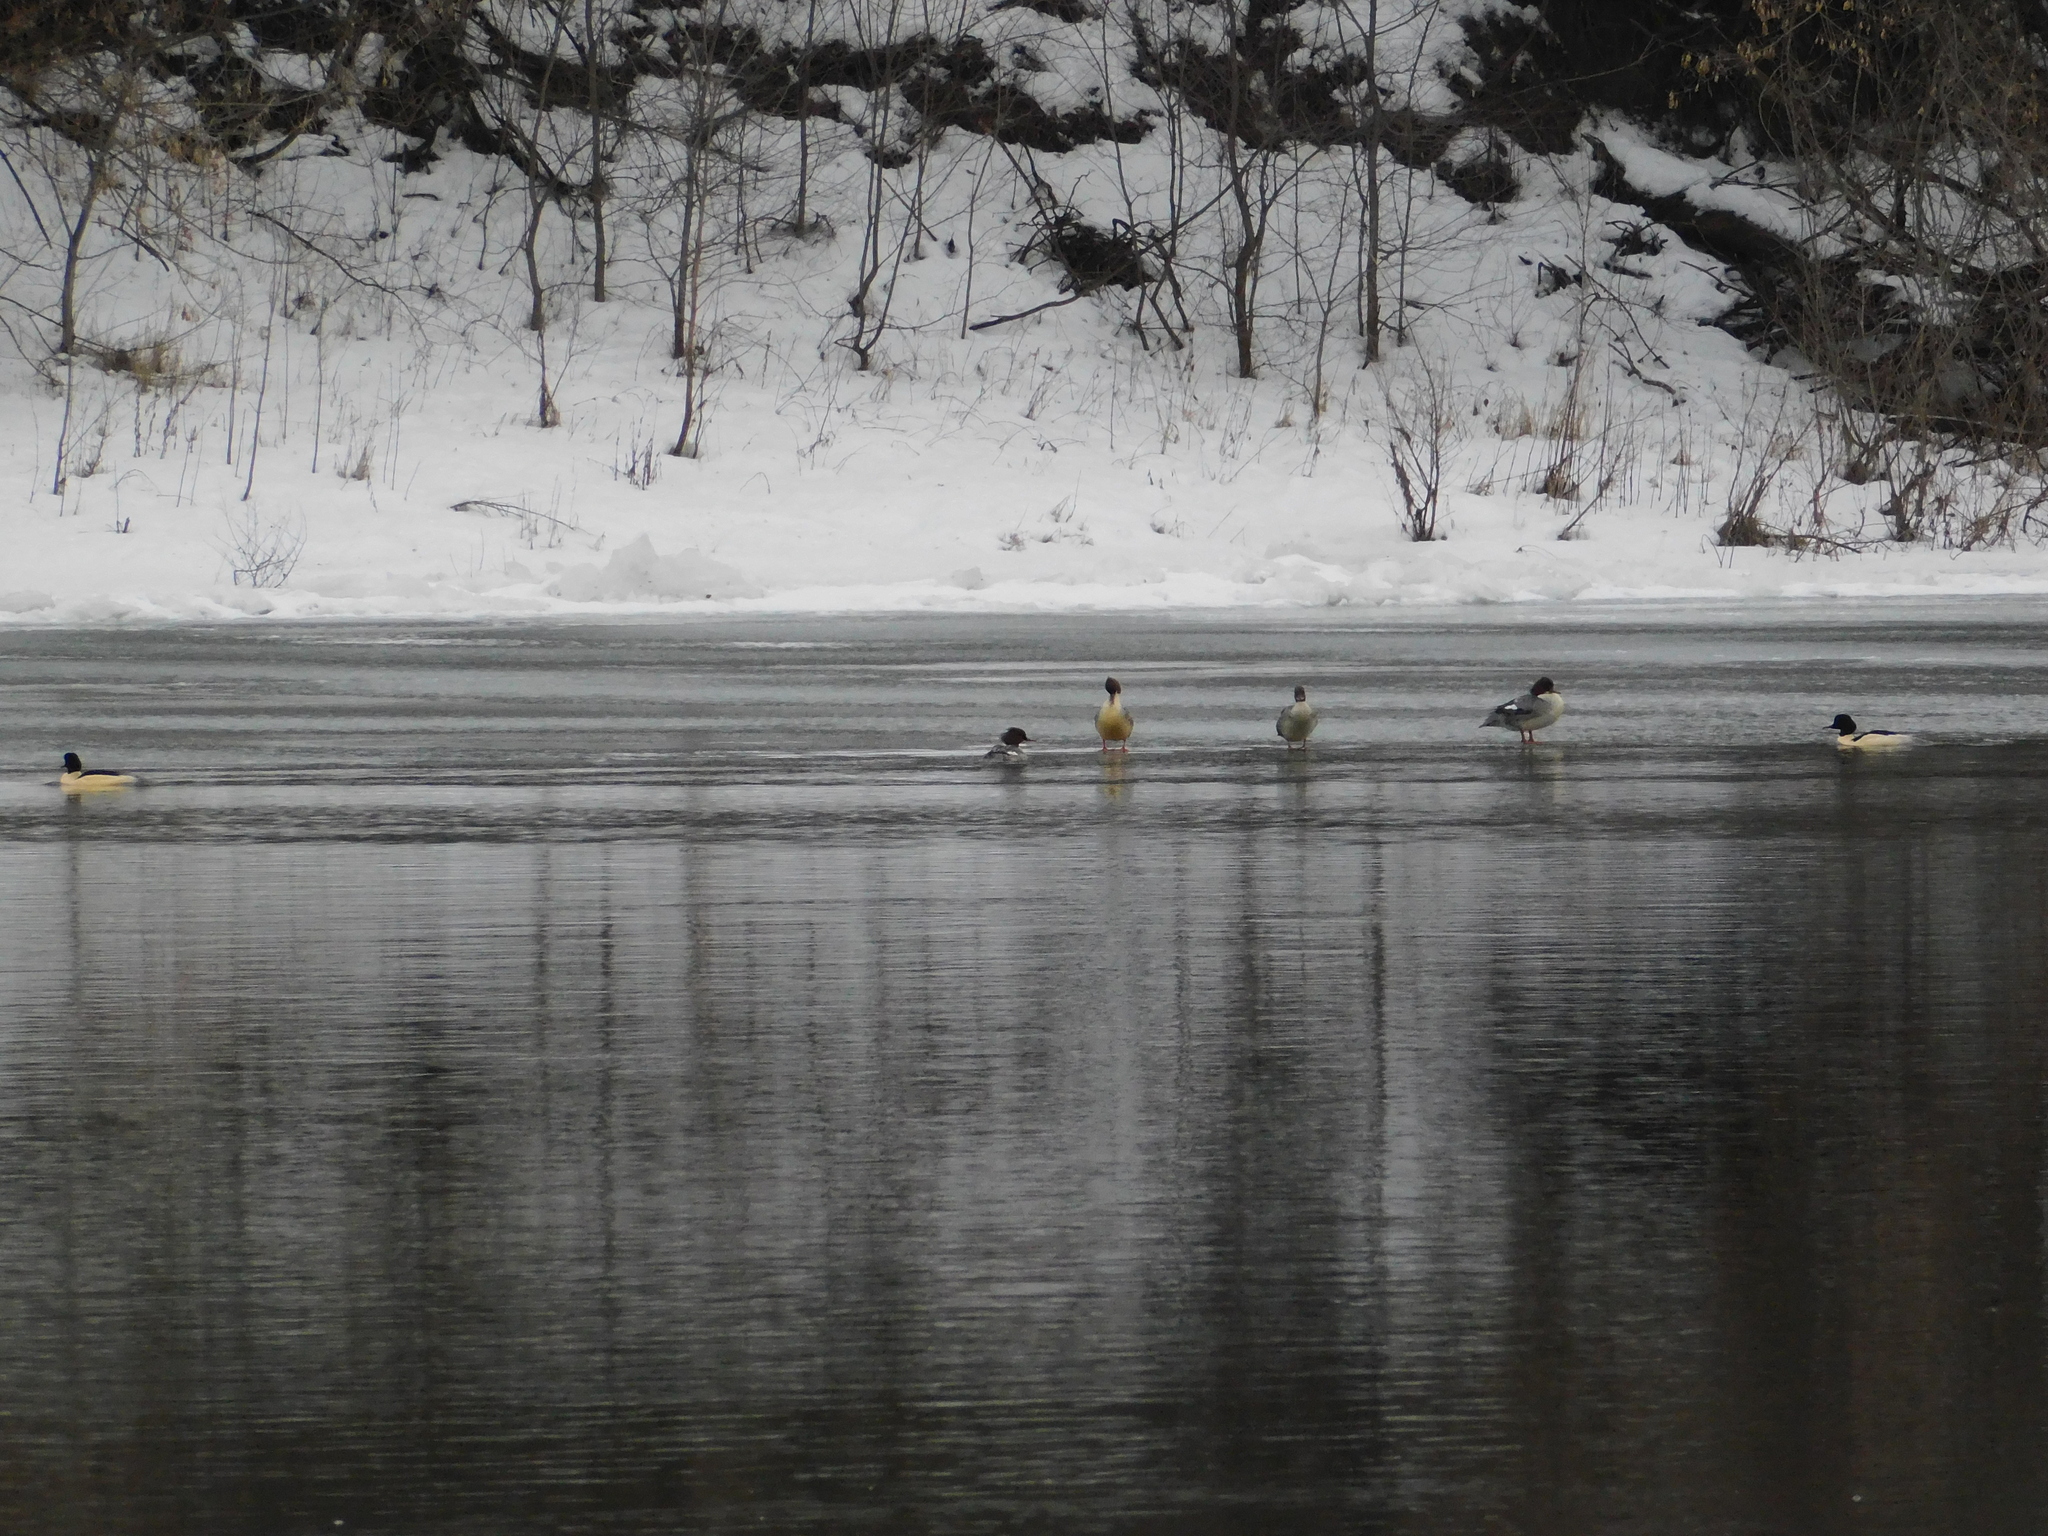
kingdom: Animalia
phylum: Chordata
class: Aves
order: Anseriformes
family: Anatidae
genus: Mergus
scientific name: Mergus merganser
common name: Common merganser
